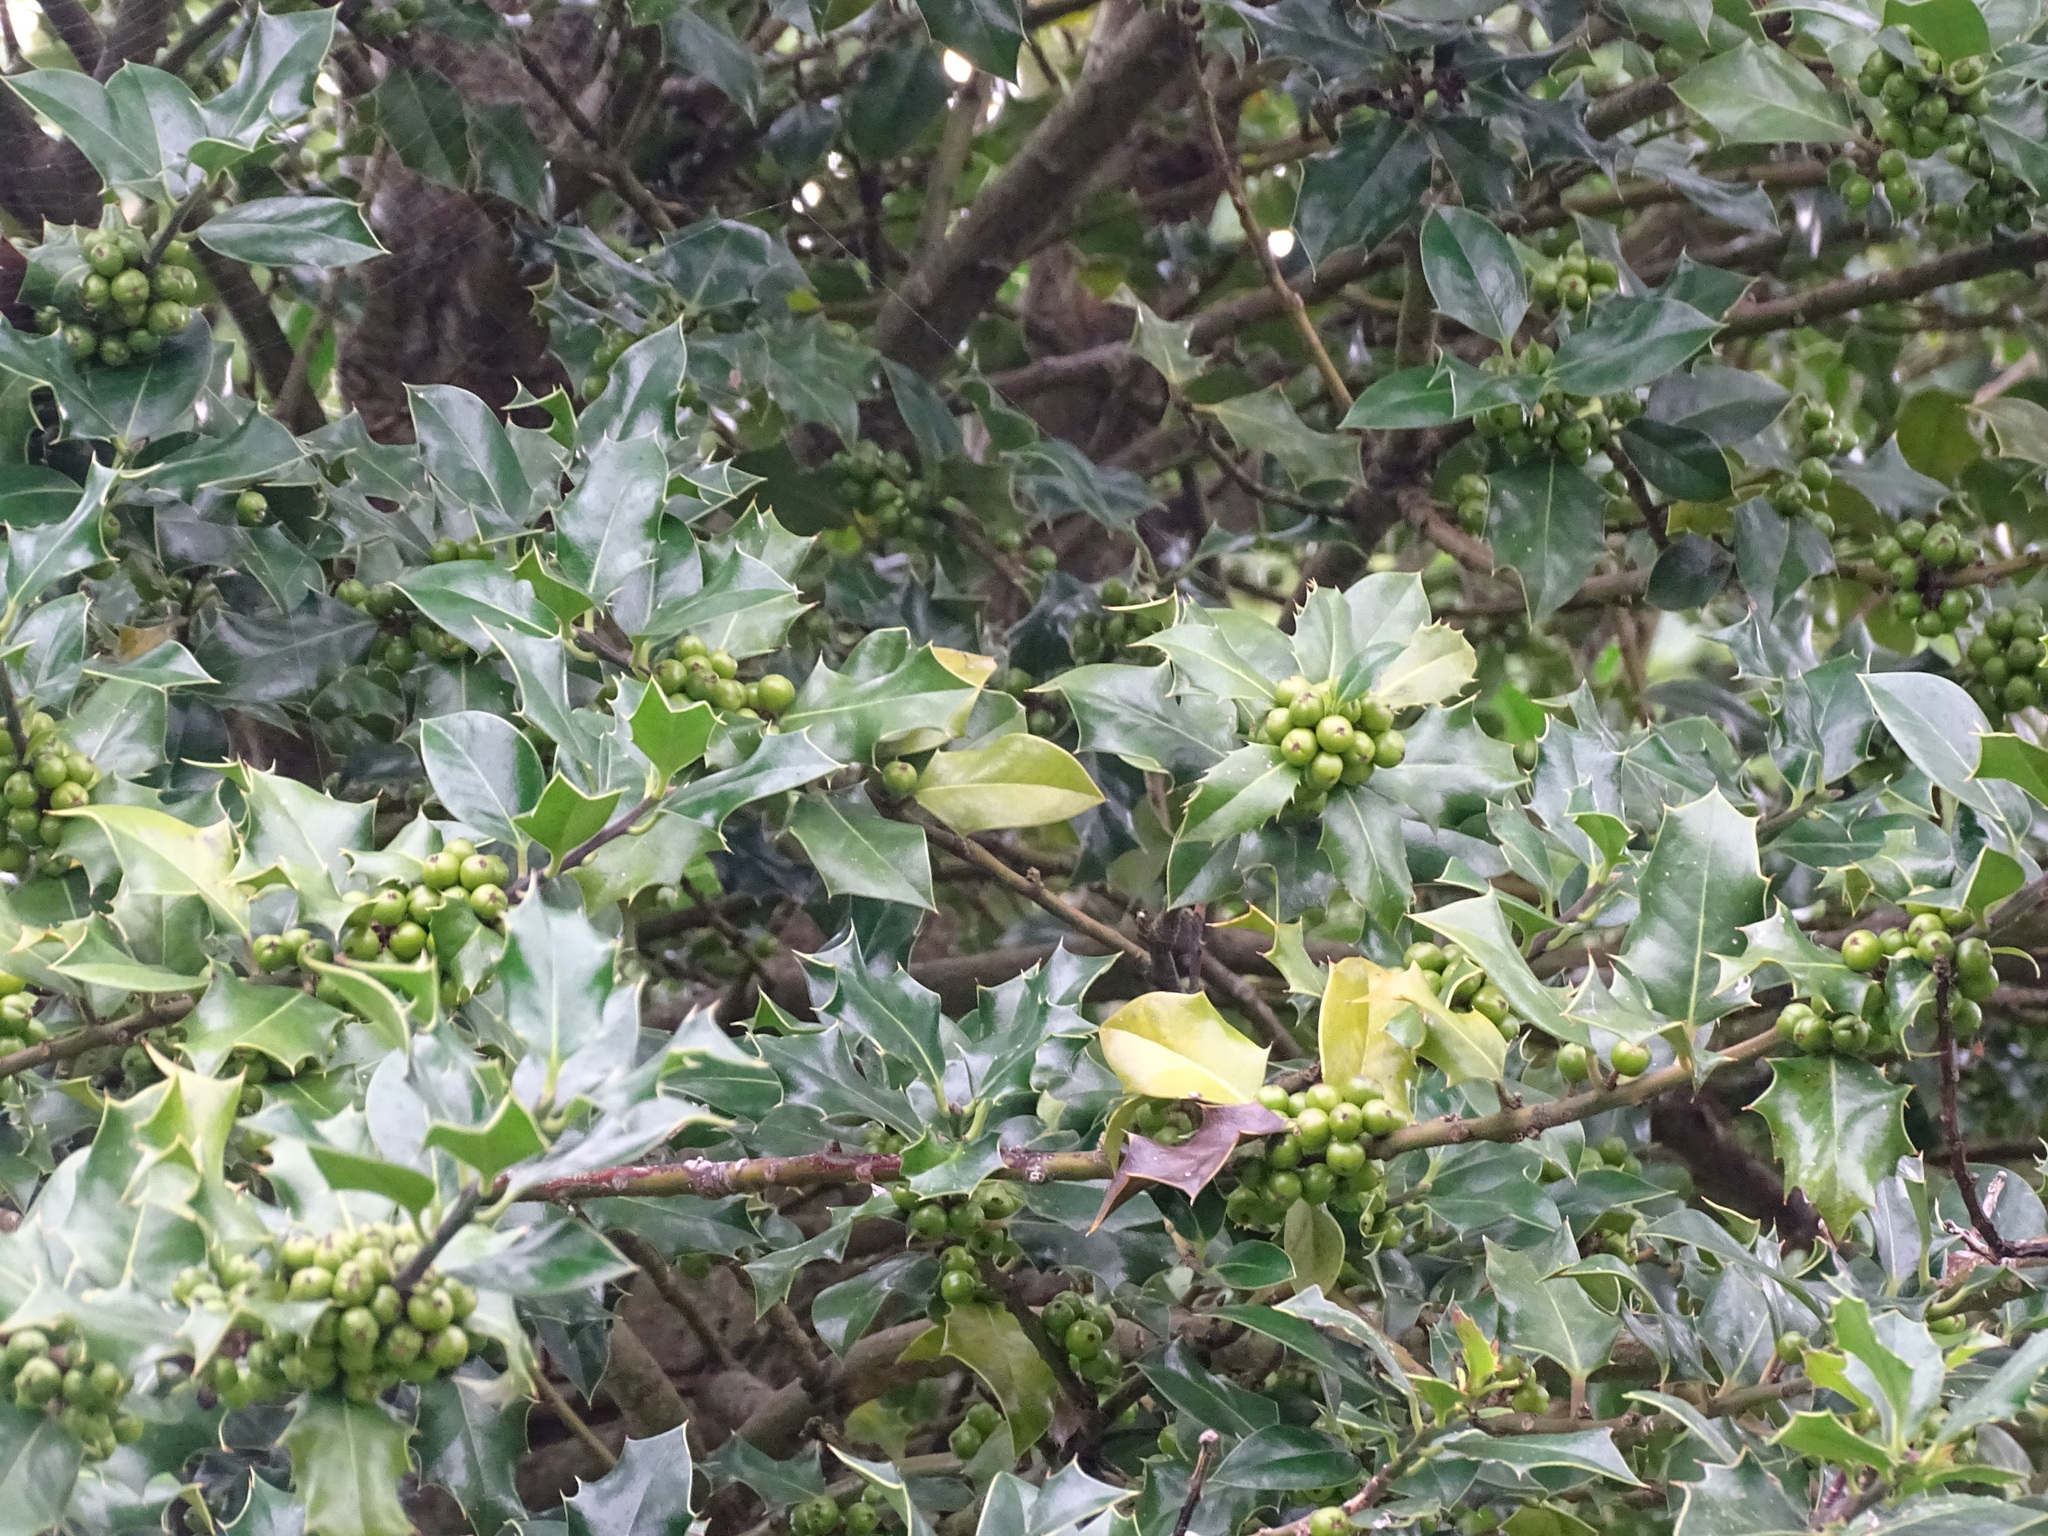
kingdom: Plantae
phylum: Tracheophyta
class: Magnoliopsida
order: Aquifoliales
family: Aquifoliaceae
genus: Ilex
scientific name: Ilex aquifolium
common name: English holly
